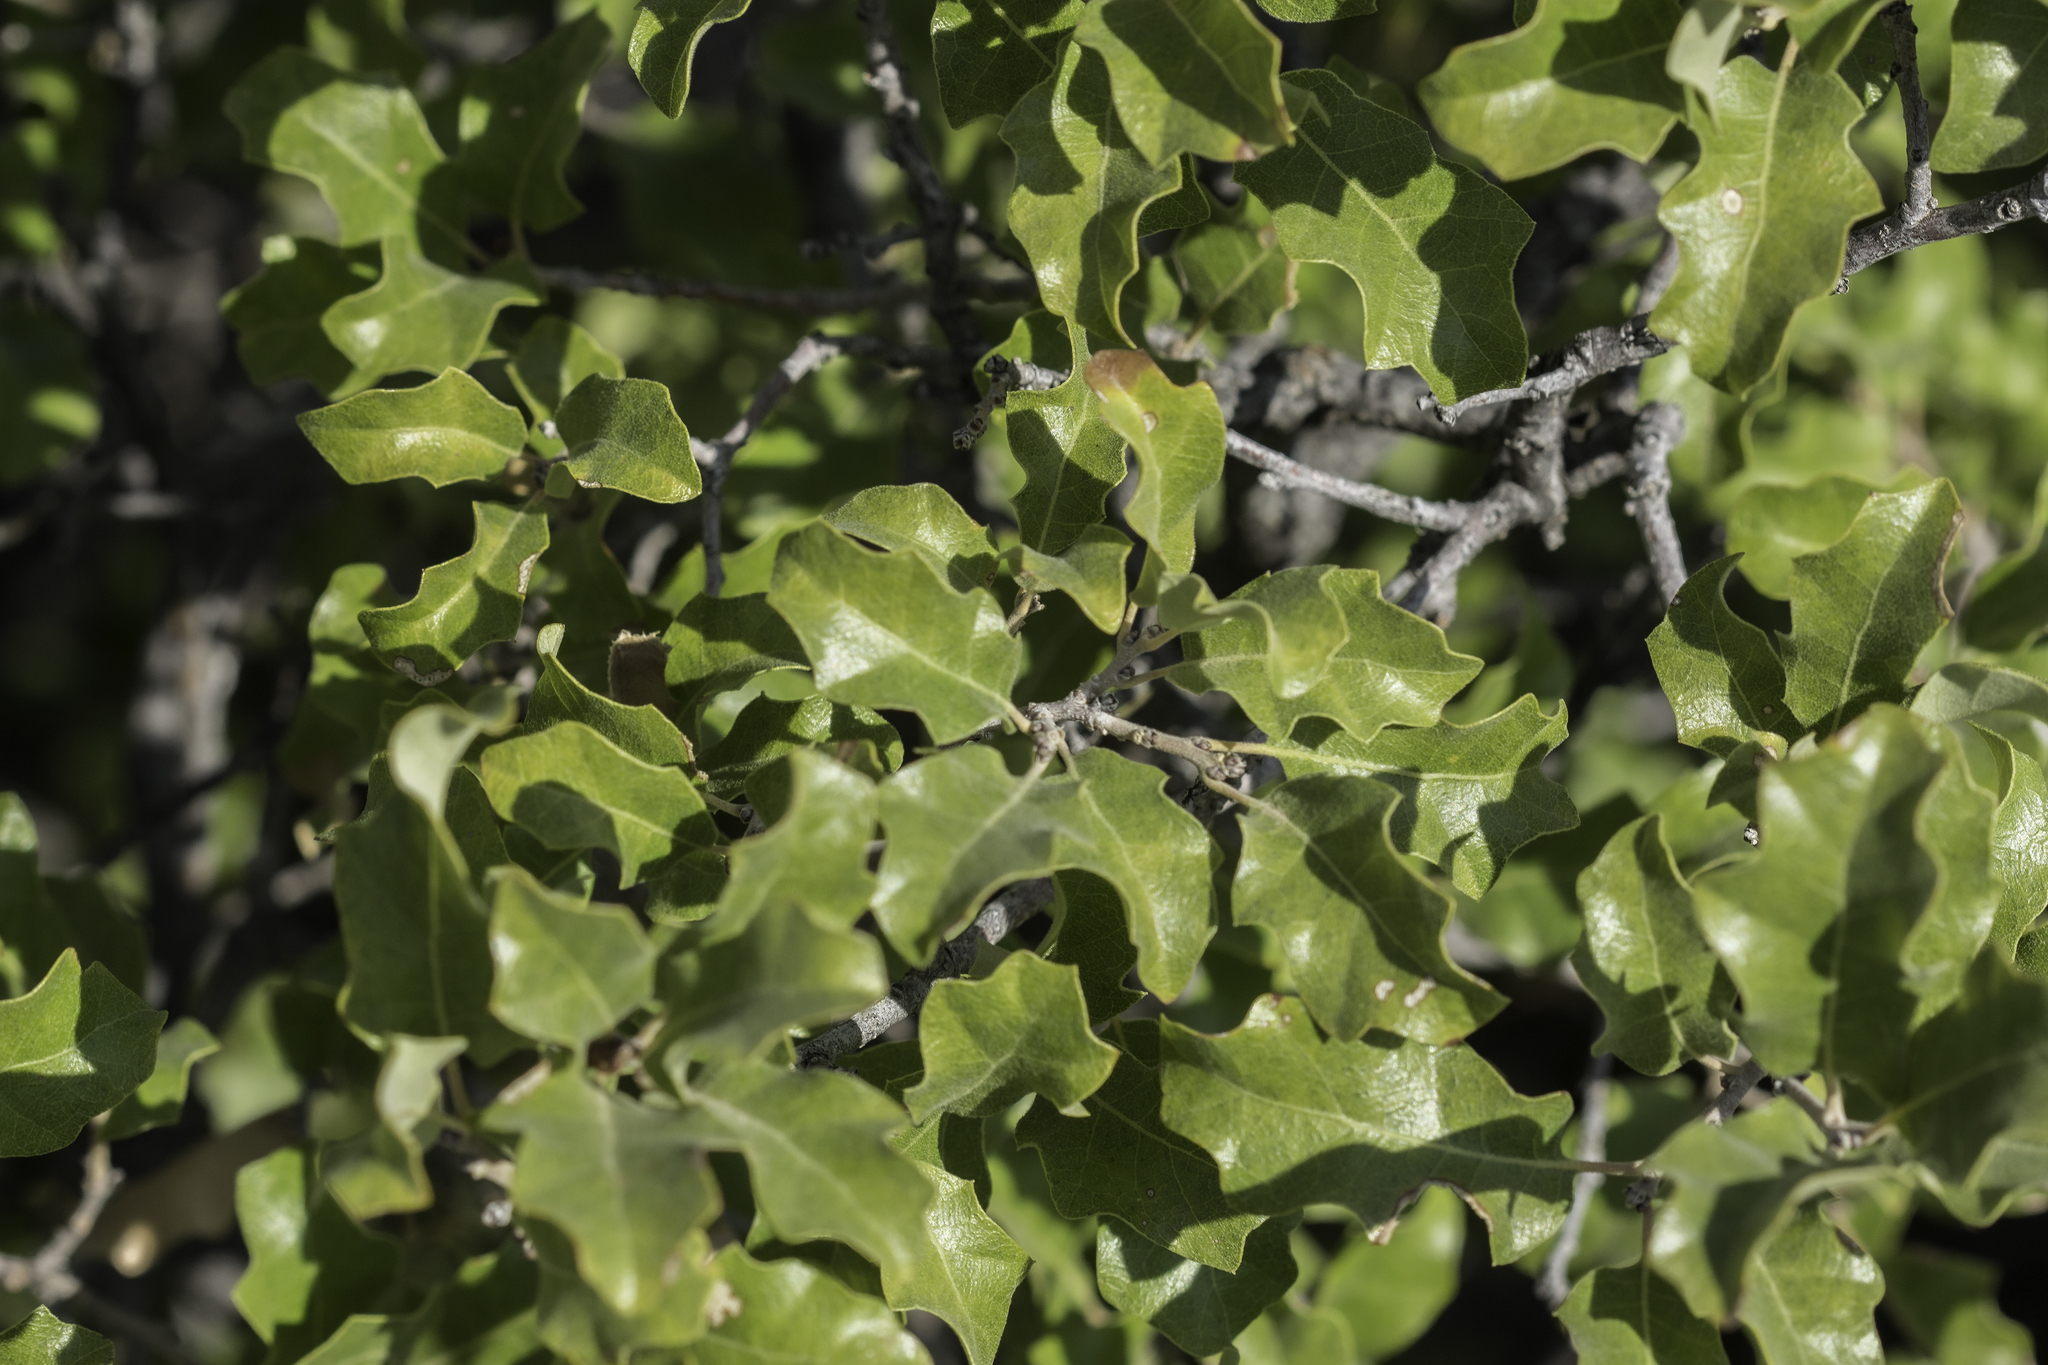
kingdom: Plantae
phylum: Tracheophyta
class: Magnoliopsida
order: Fagales
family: Fagaceae
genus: Quercus
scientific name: Quercus pungens
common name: Pungent oak
